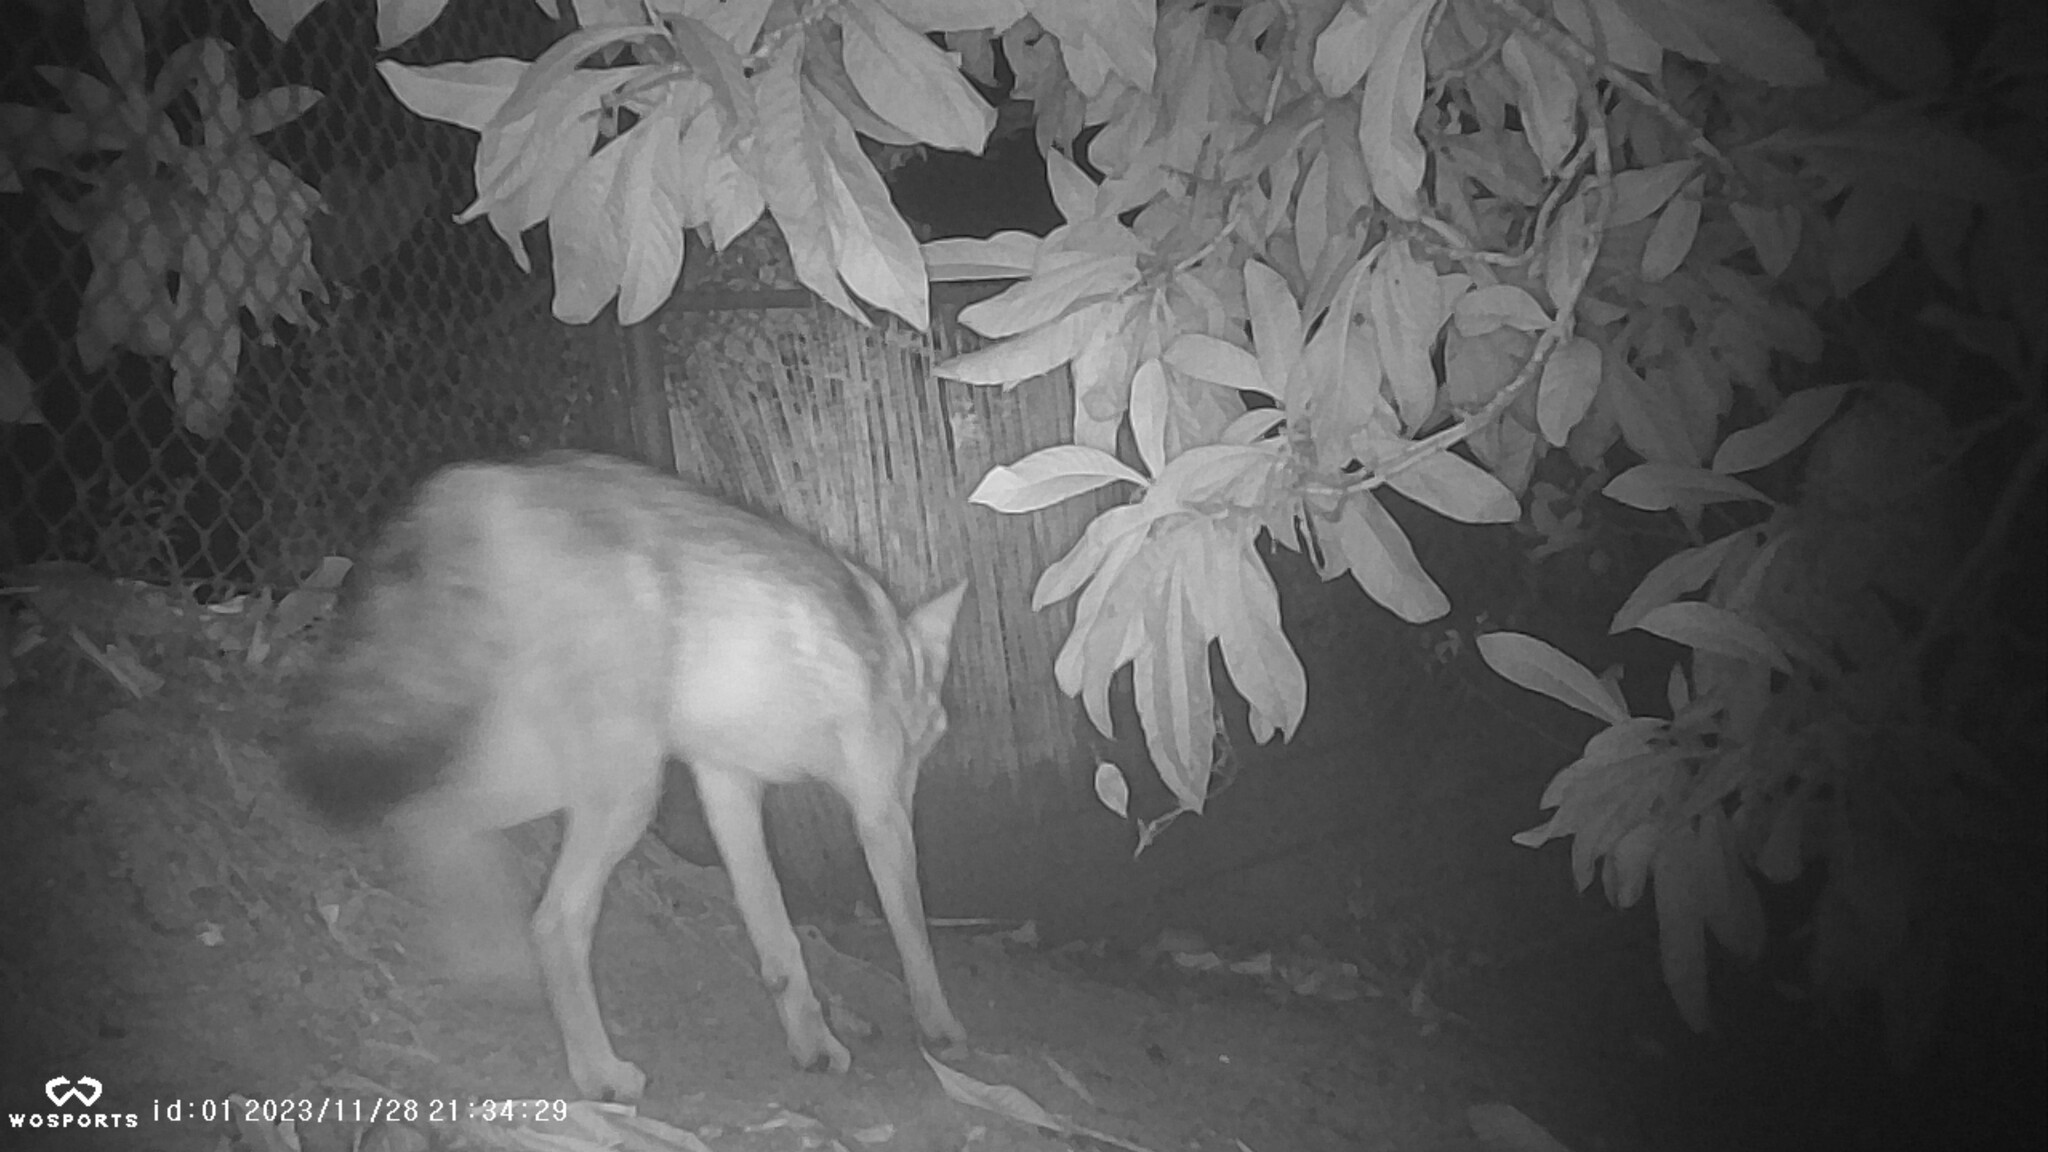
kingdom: Animalia
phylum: Chordata
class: Mammalia
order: Carnivora
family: Canidae
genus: Canis
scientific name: Canis latrans
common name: Coyote
